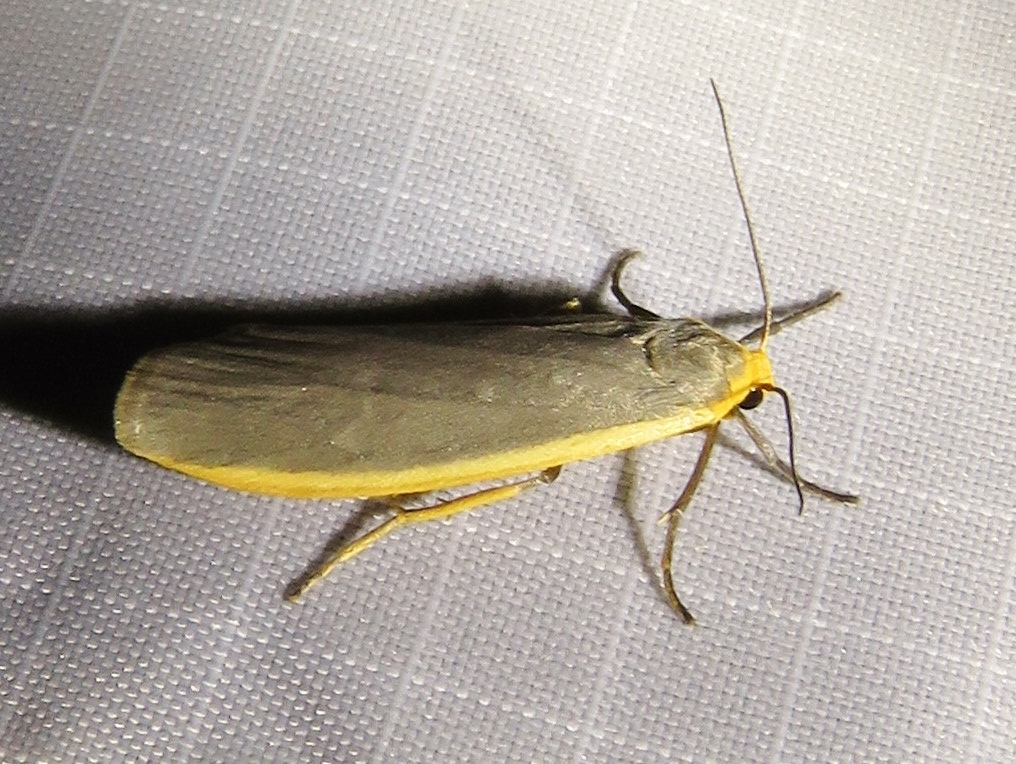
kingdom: Animalia
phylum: Arthropoda
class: Insecta
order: Lepidoptera
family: Erebidae
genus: Nyea
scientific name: Nyea lurideola
